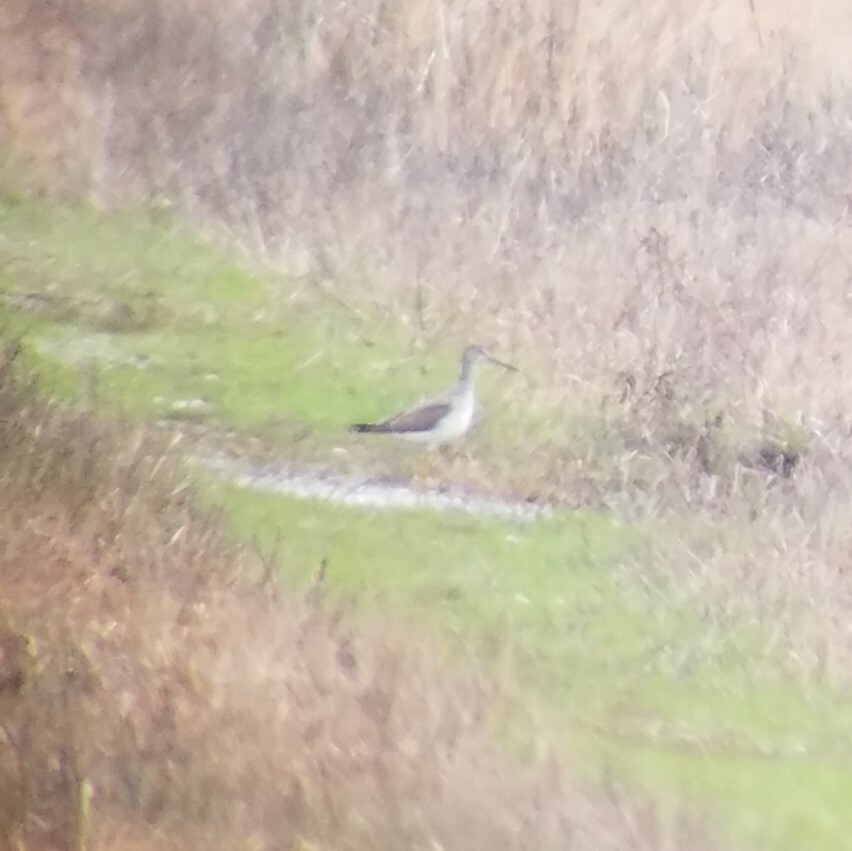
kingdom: Animalia
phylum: Chordata
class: Aves
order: Charadriiformes
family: Scolopacidae
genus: Tringa
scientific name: Tringa melanoleuca
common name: Greater yellowlegs
